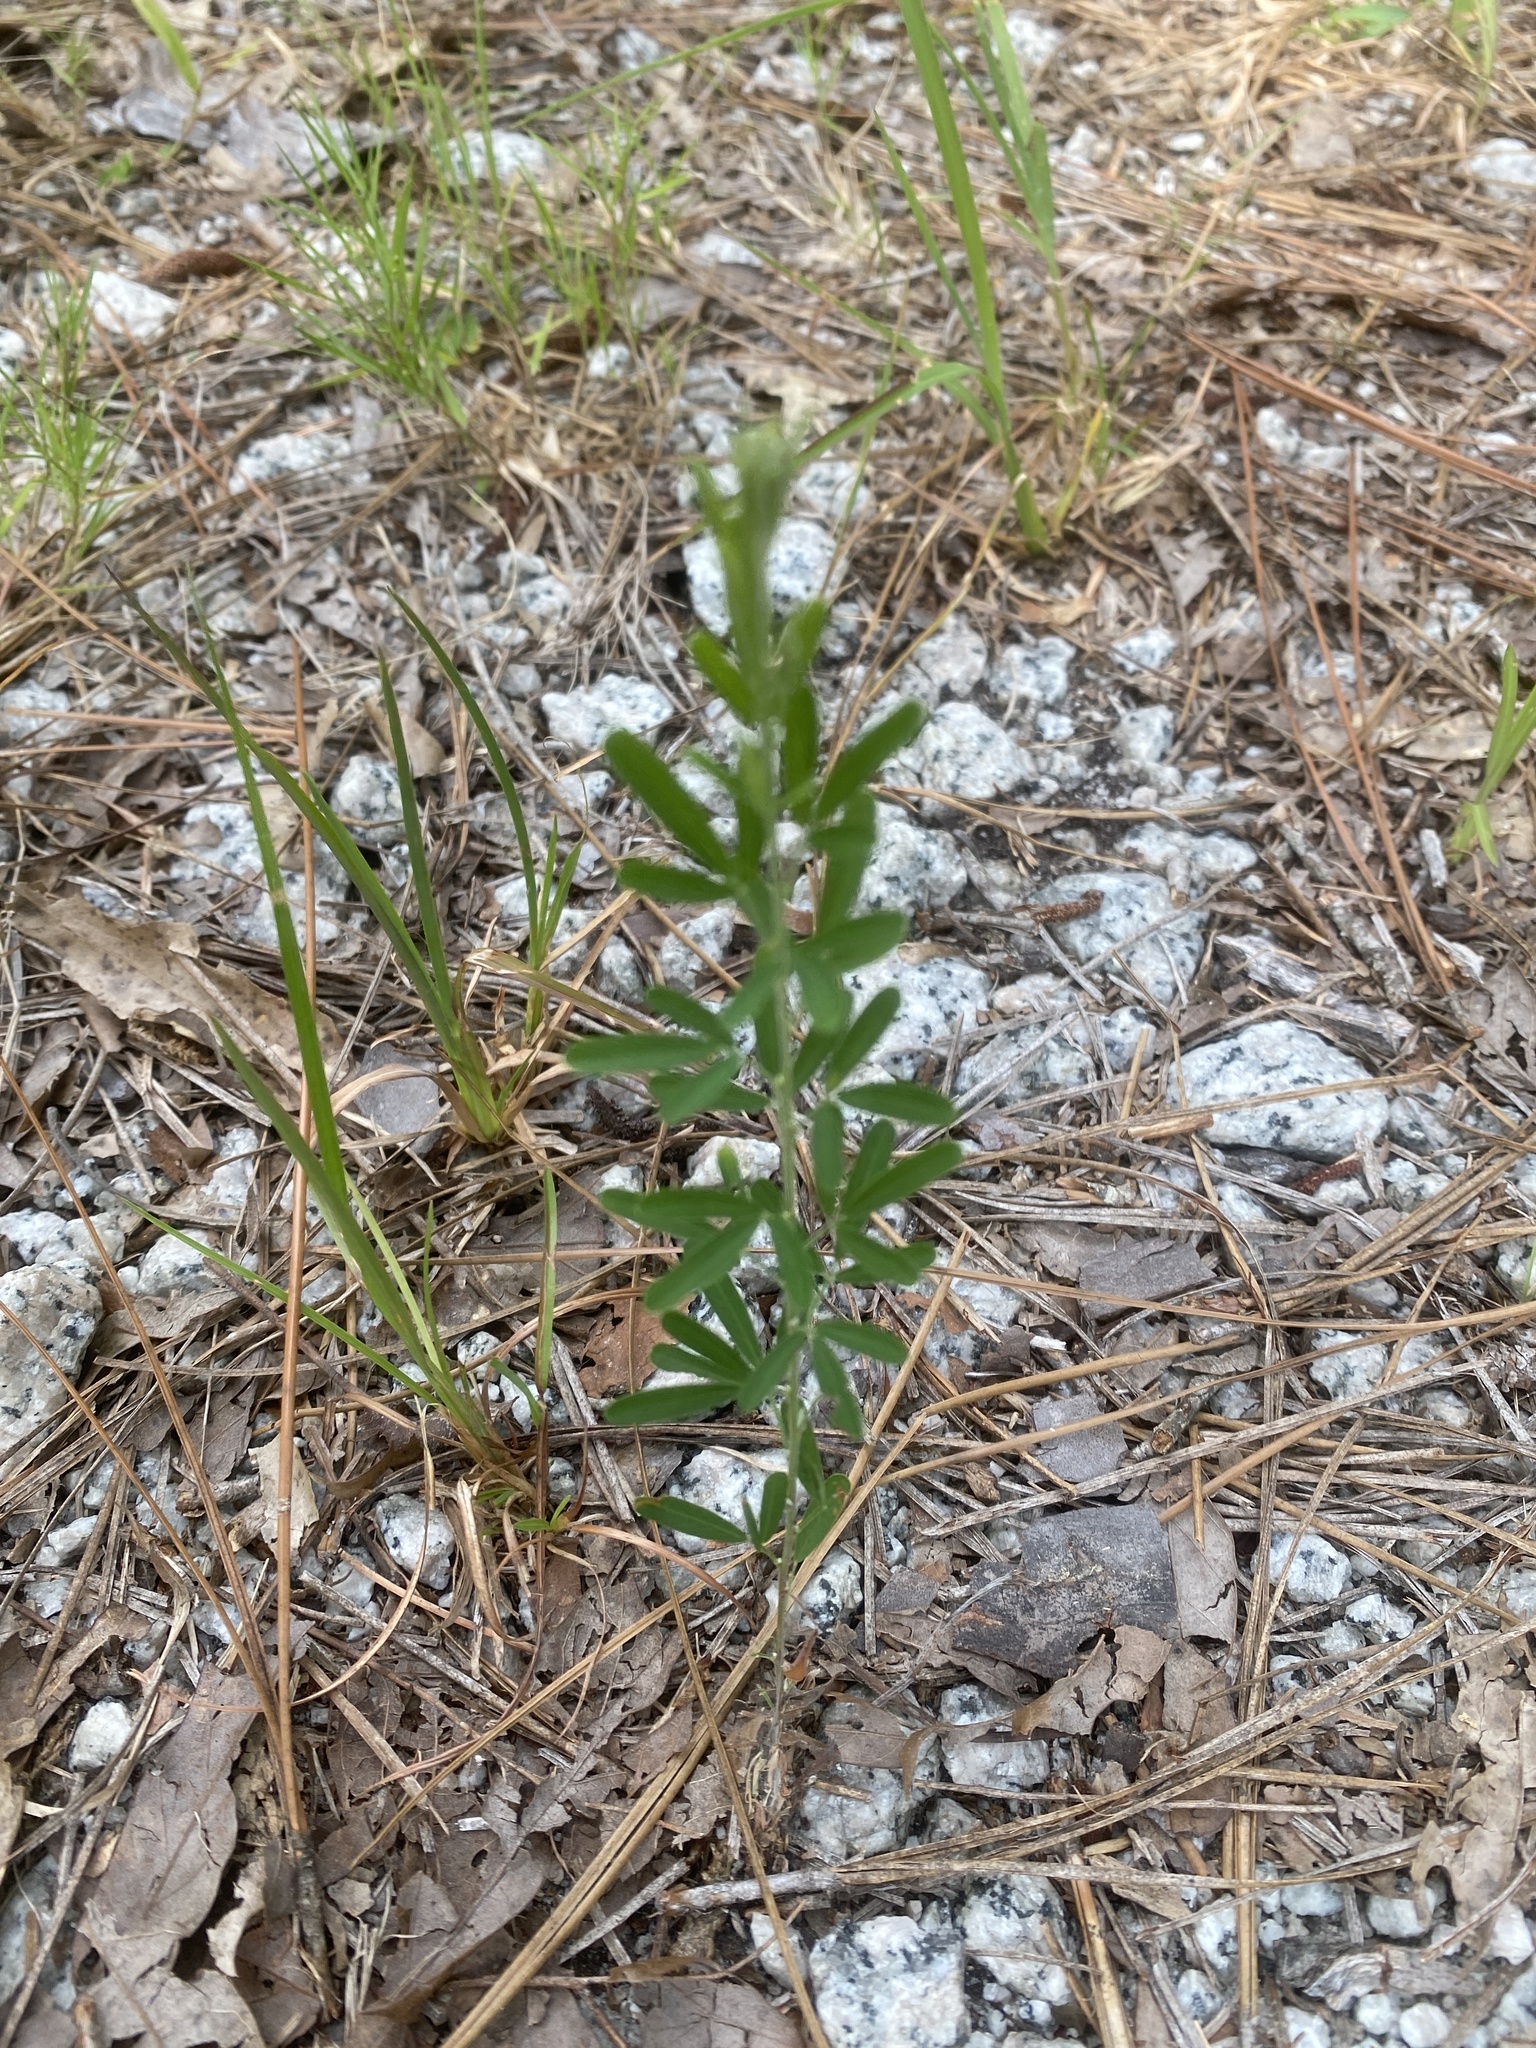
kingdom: Plantae
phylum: Tracheophyta
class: Magnoliopsida
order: Fabales
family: Fabaceae
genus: Lespedeza
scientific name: Lespedeza cuneata
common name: Chinese bush-clover
